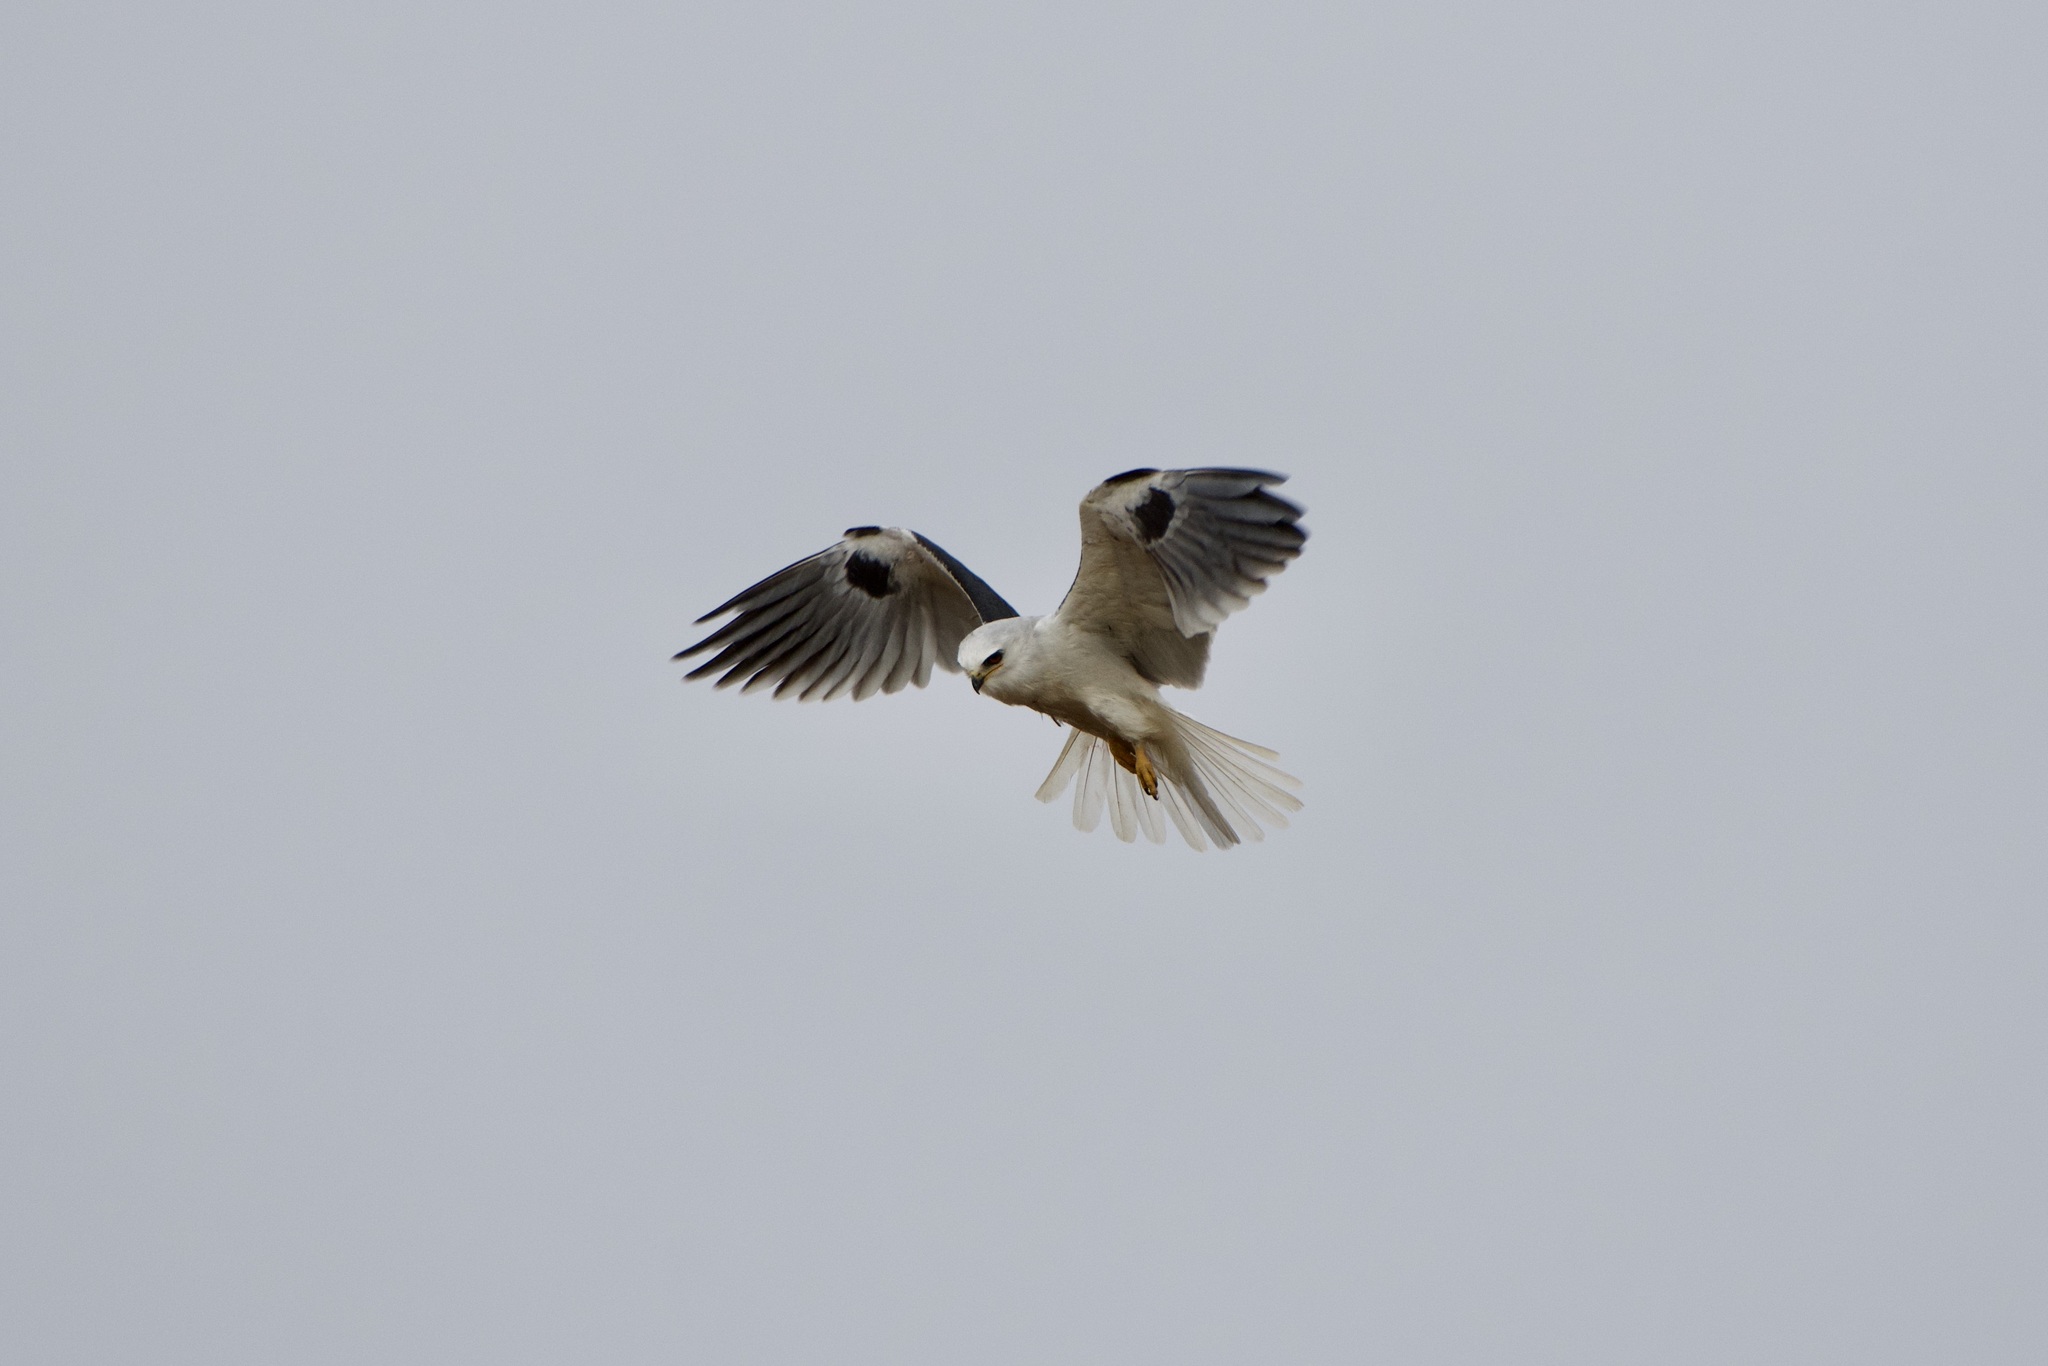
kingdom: Animalia
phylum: Chordata
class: Aves
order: Accipitriformes
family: Accipitridae
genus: Elanus
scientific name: Elanus leucurus
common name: White-tailed kite
